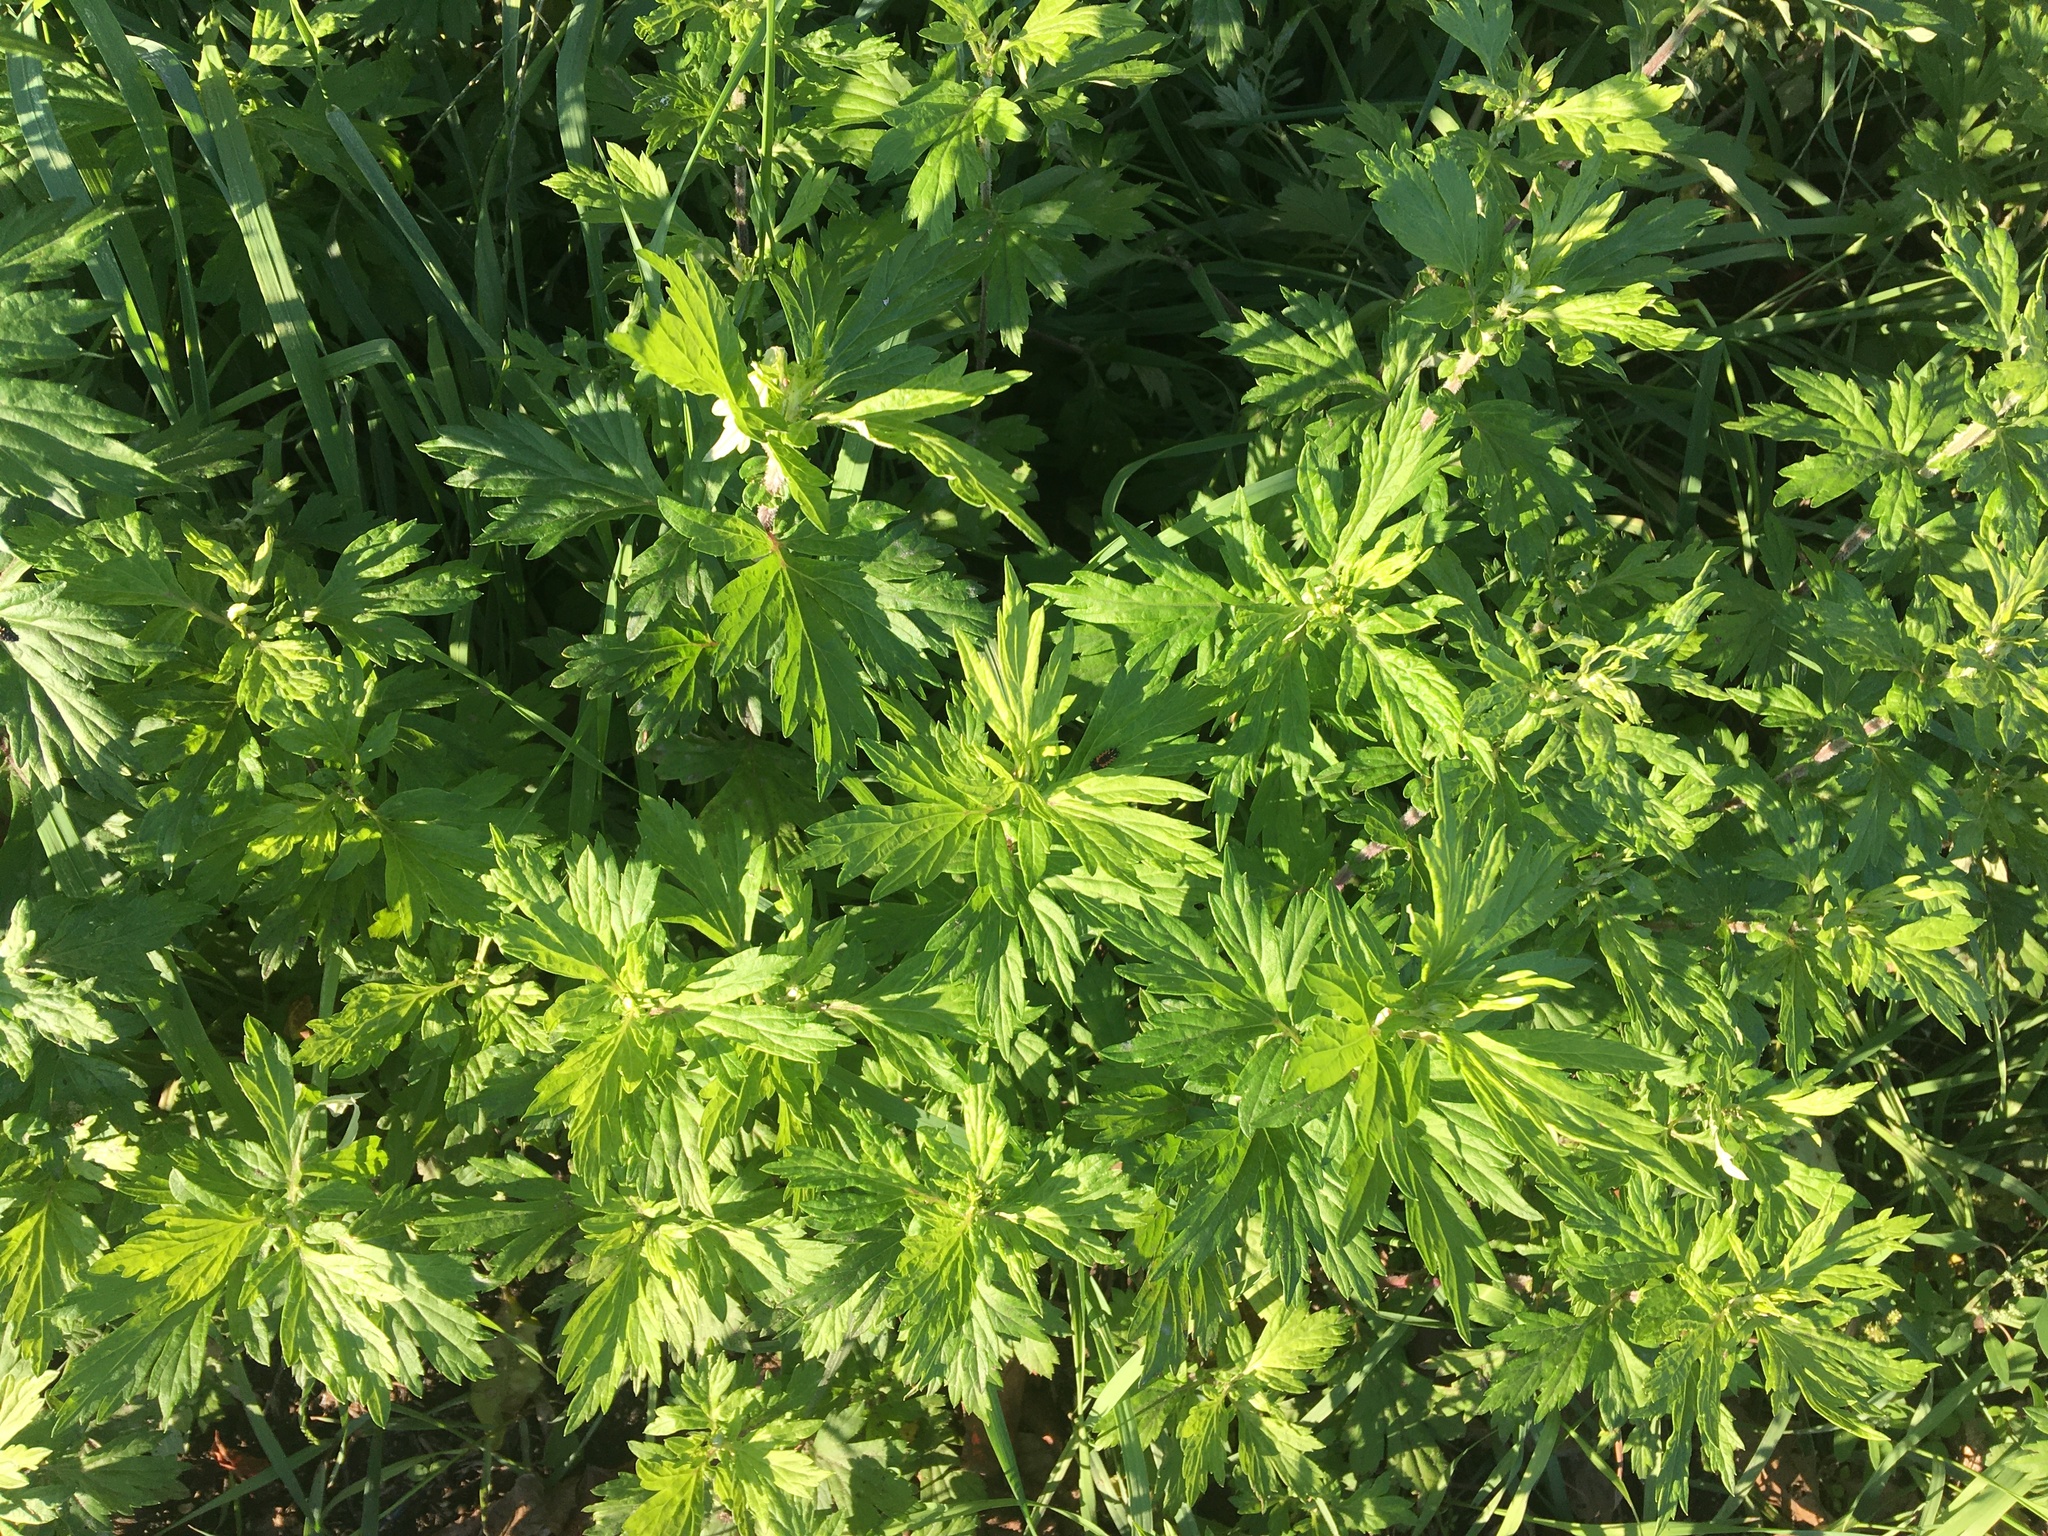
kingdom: Plantae
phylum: Tracheophyta
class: Magnoliopsida
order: Asterales
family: Asteraceae
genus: Artemisia
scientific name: Artemisia vulgaris
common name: Mugwort
